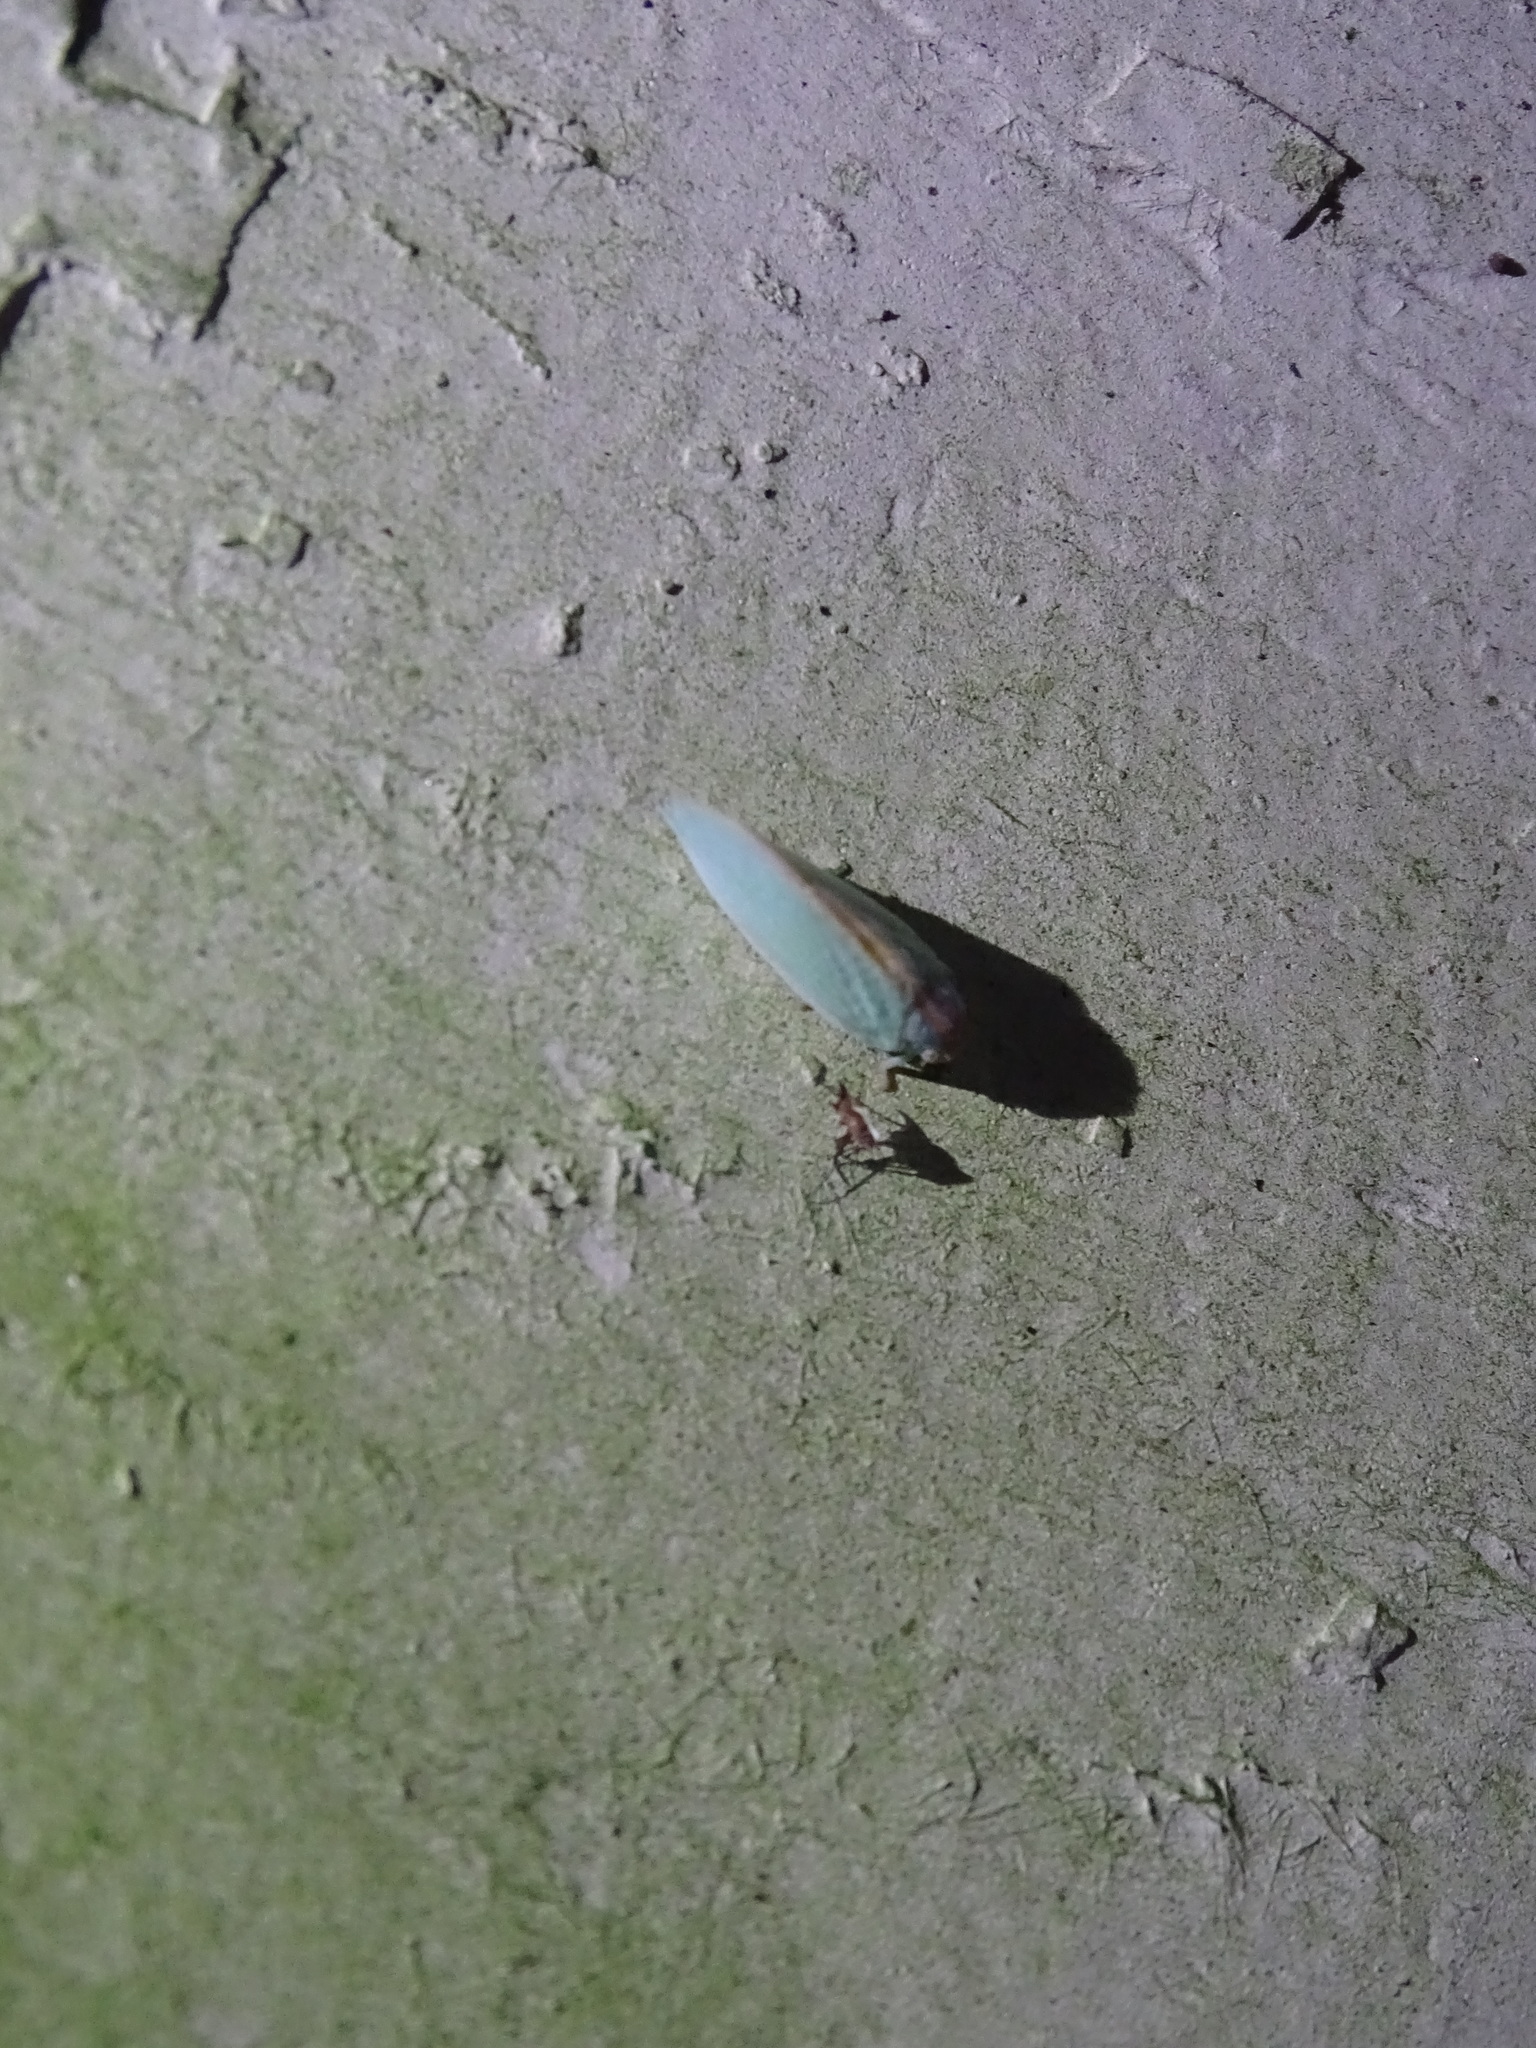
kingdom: Animalia
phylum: Arthropoda
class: Insecta
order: Hemiptera
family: Flatidae
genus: Ormenaria
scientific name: Ormenaria rufifascia
